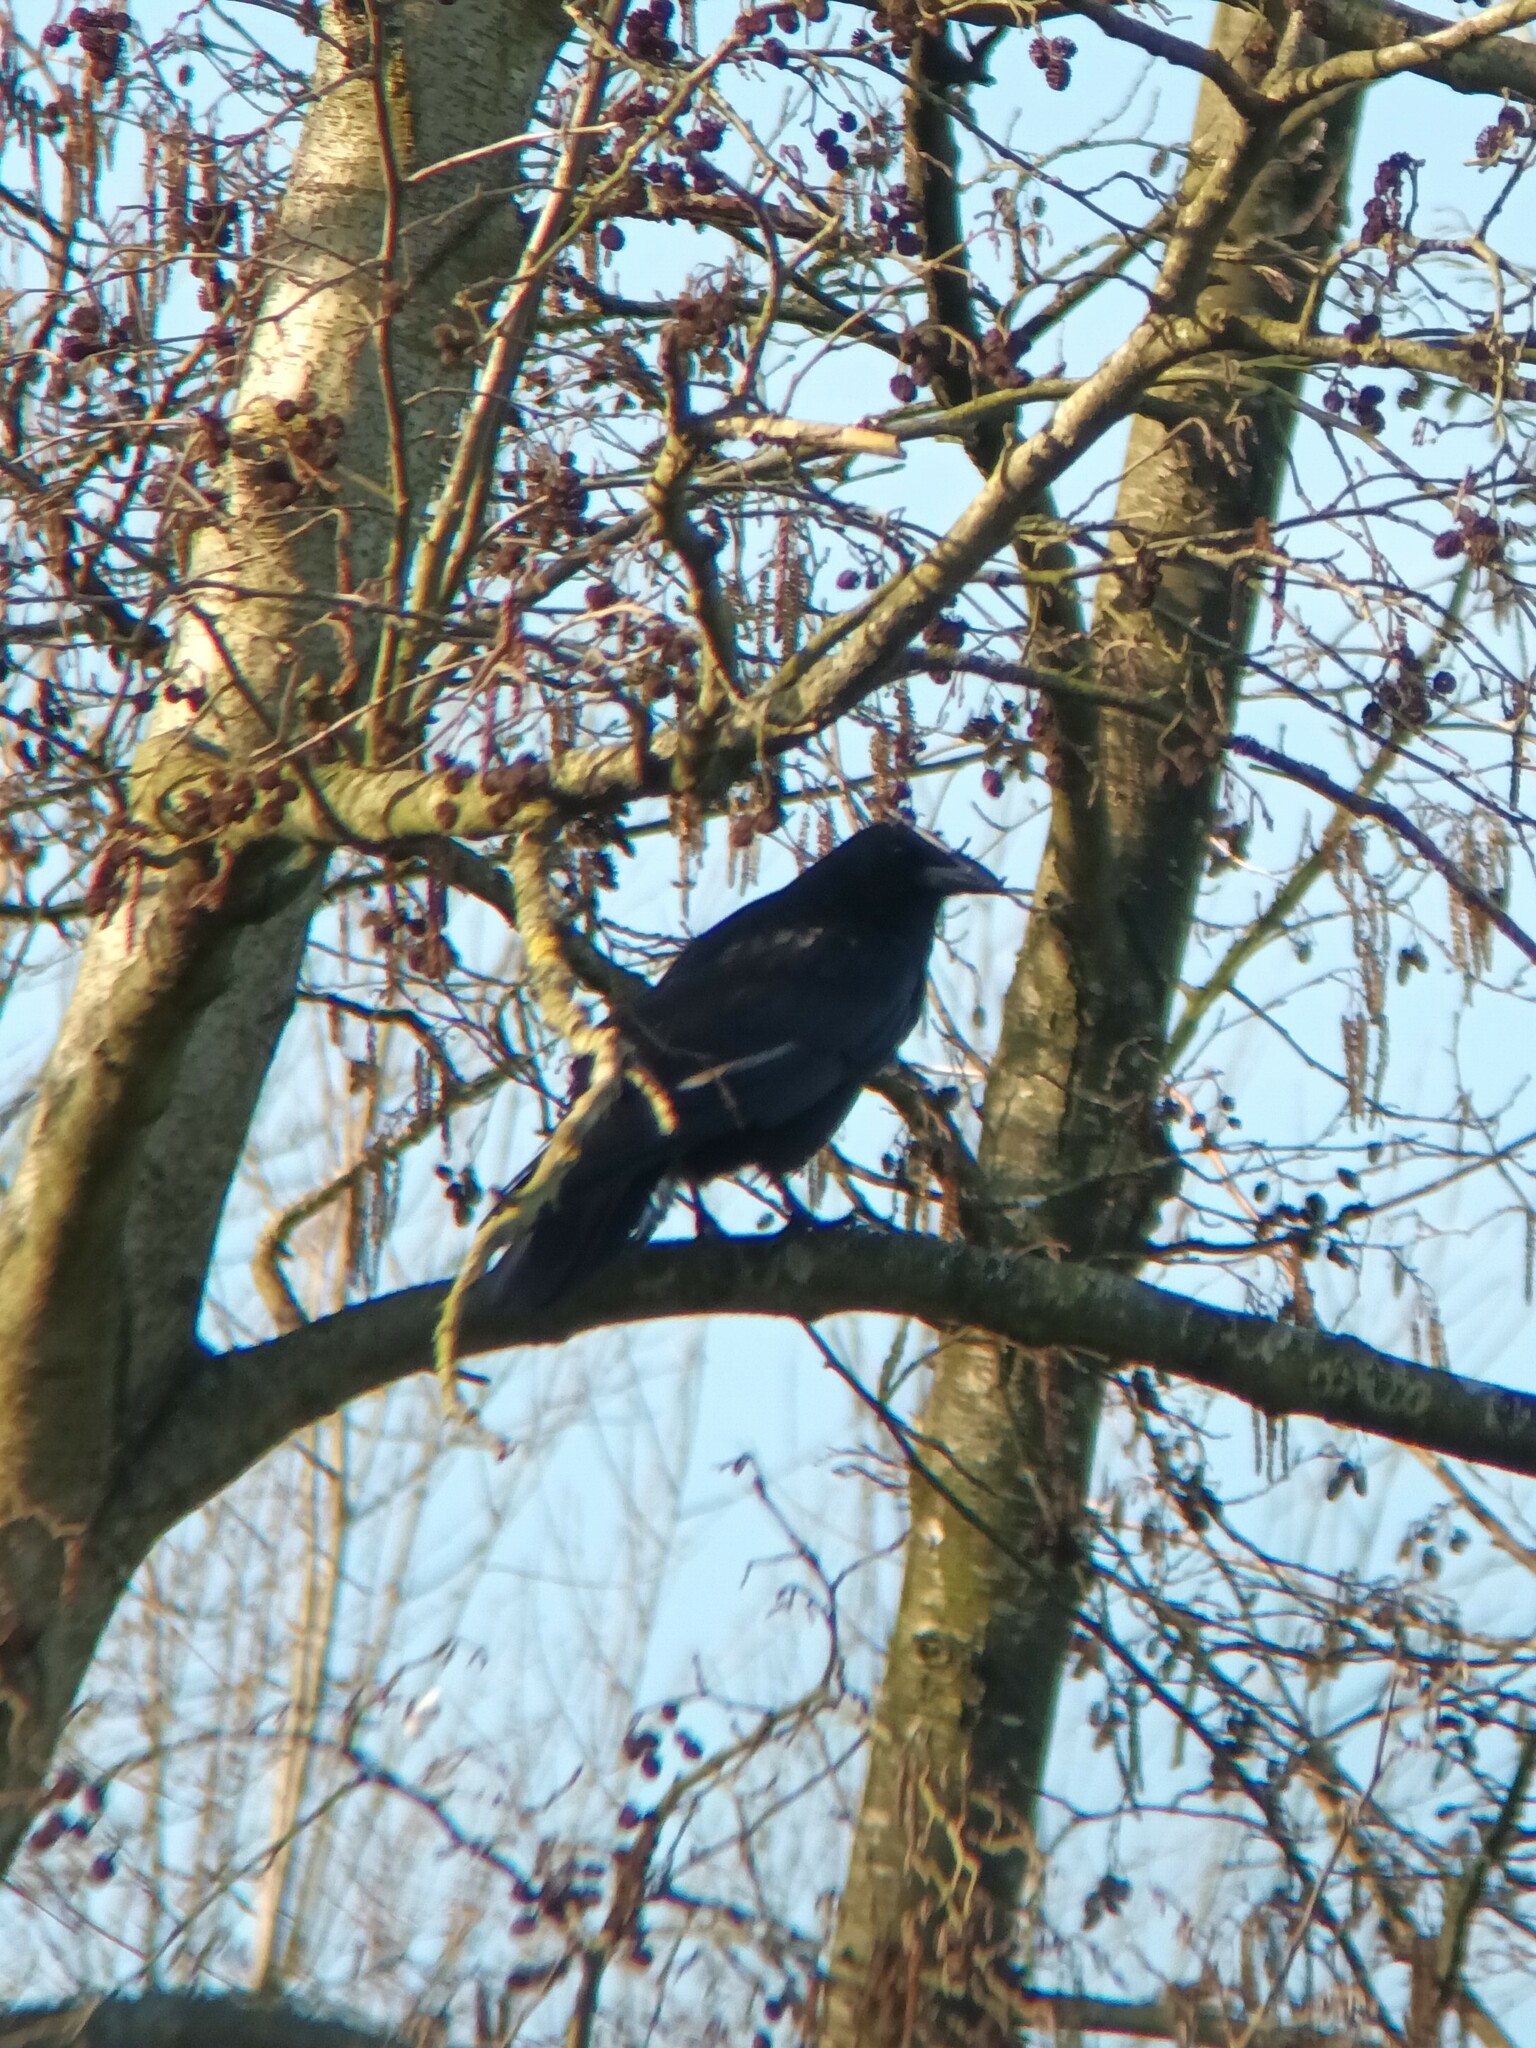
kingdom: Animalia
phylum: Chordata
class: Aves
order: Passeriformes
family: Corvidae
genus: Corvus
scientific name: Corvus corone
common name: Carrion crow
